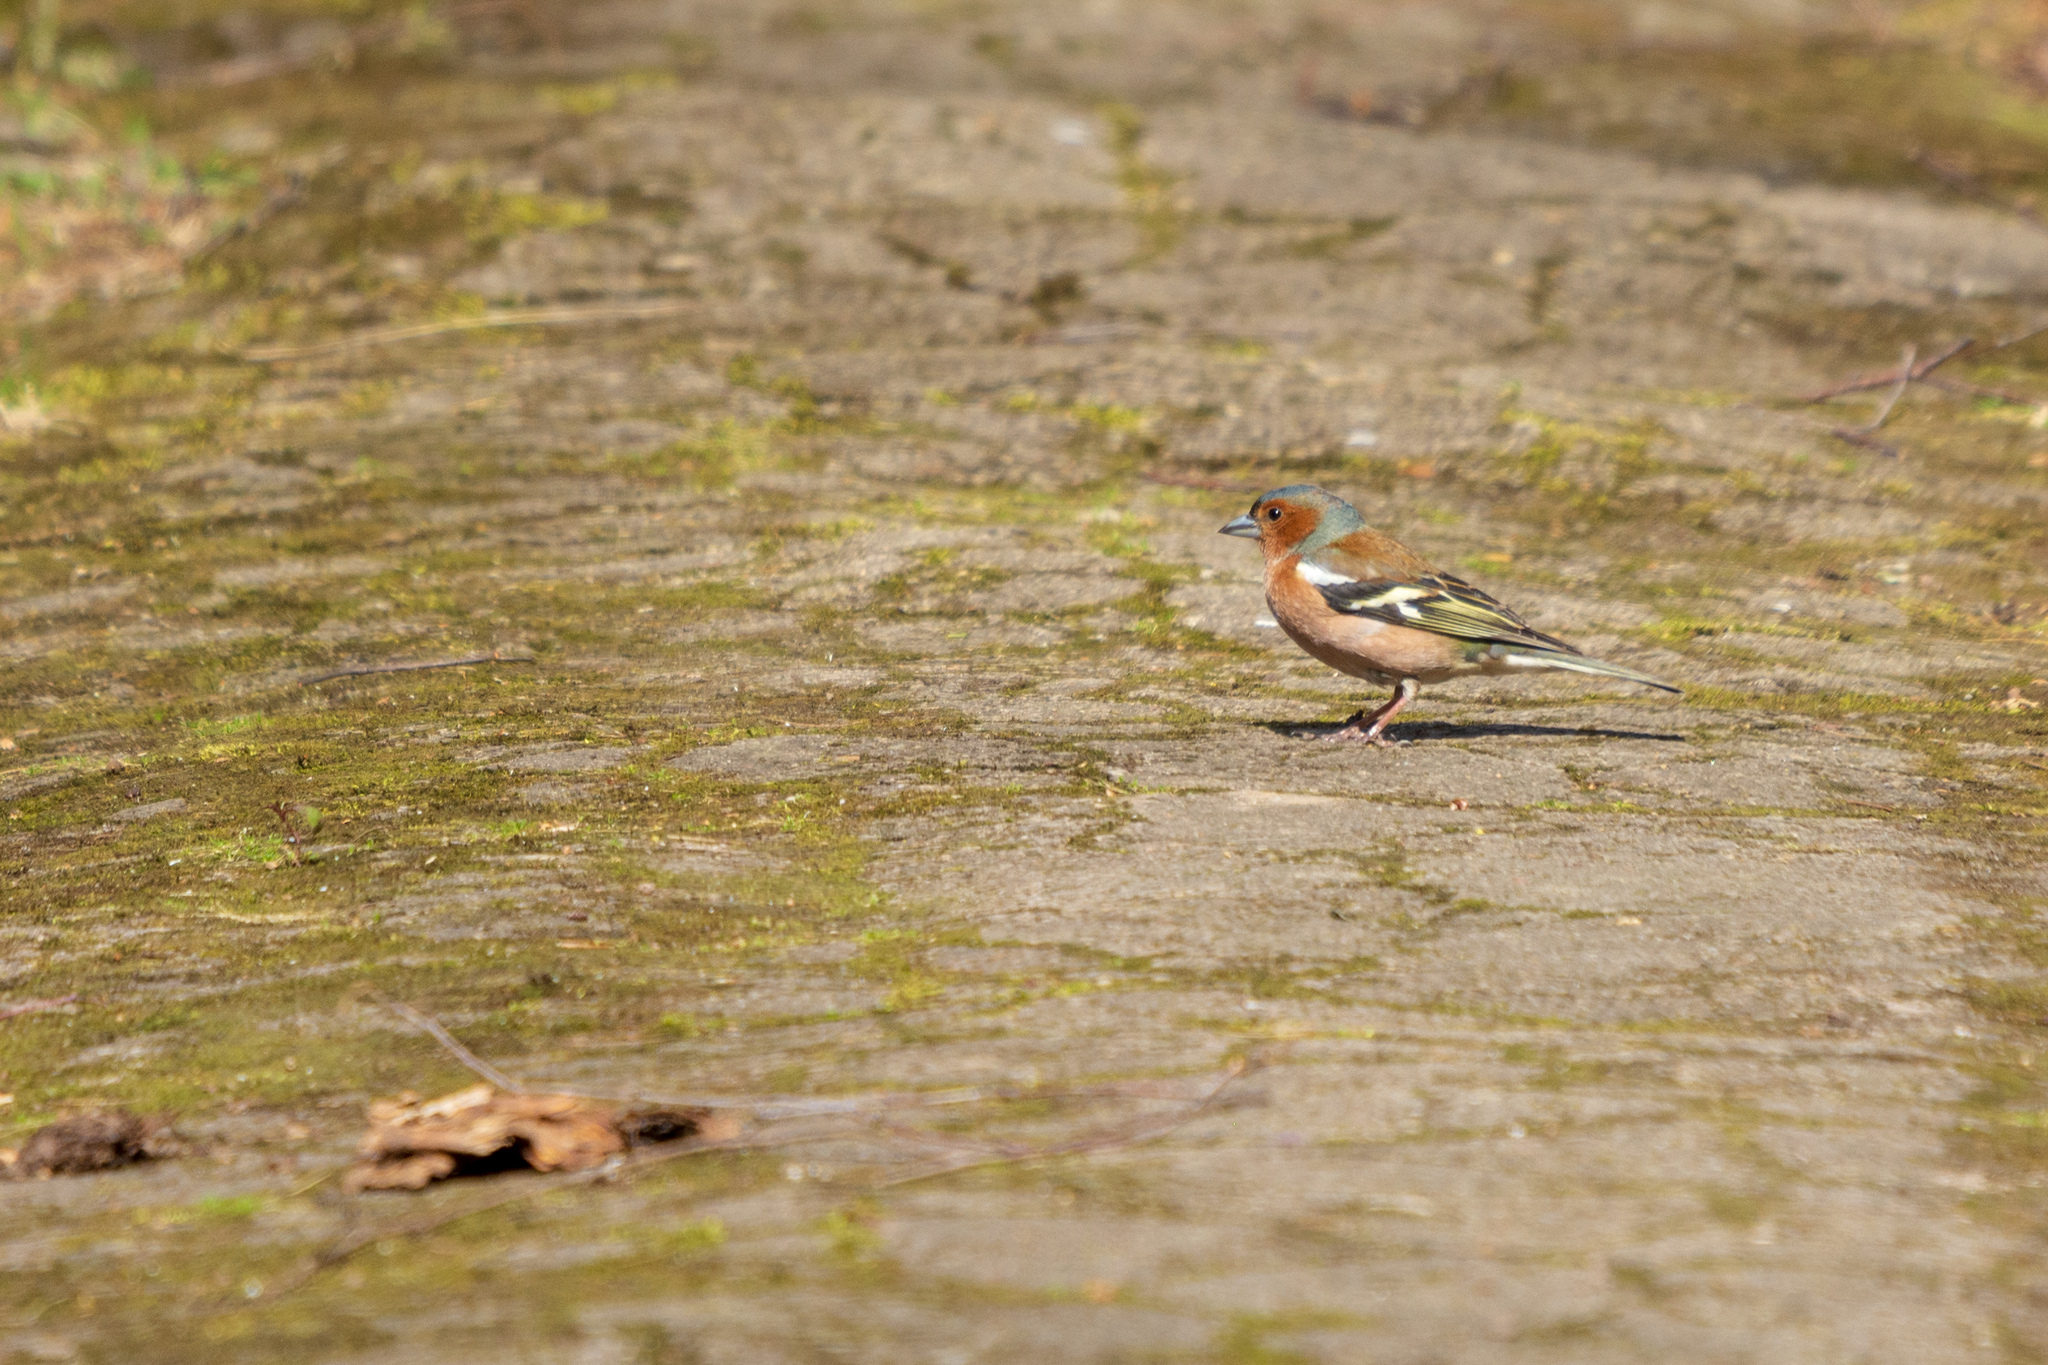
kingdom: Animalia
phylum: Chordata
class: Aves
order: Passeriformes
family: Fringillidae
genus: Fringilla
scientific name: Fringilla coelebs
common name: Common chaffinch
